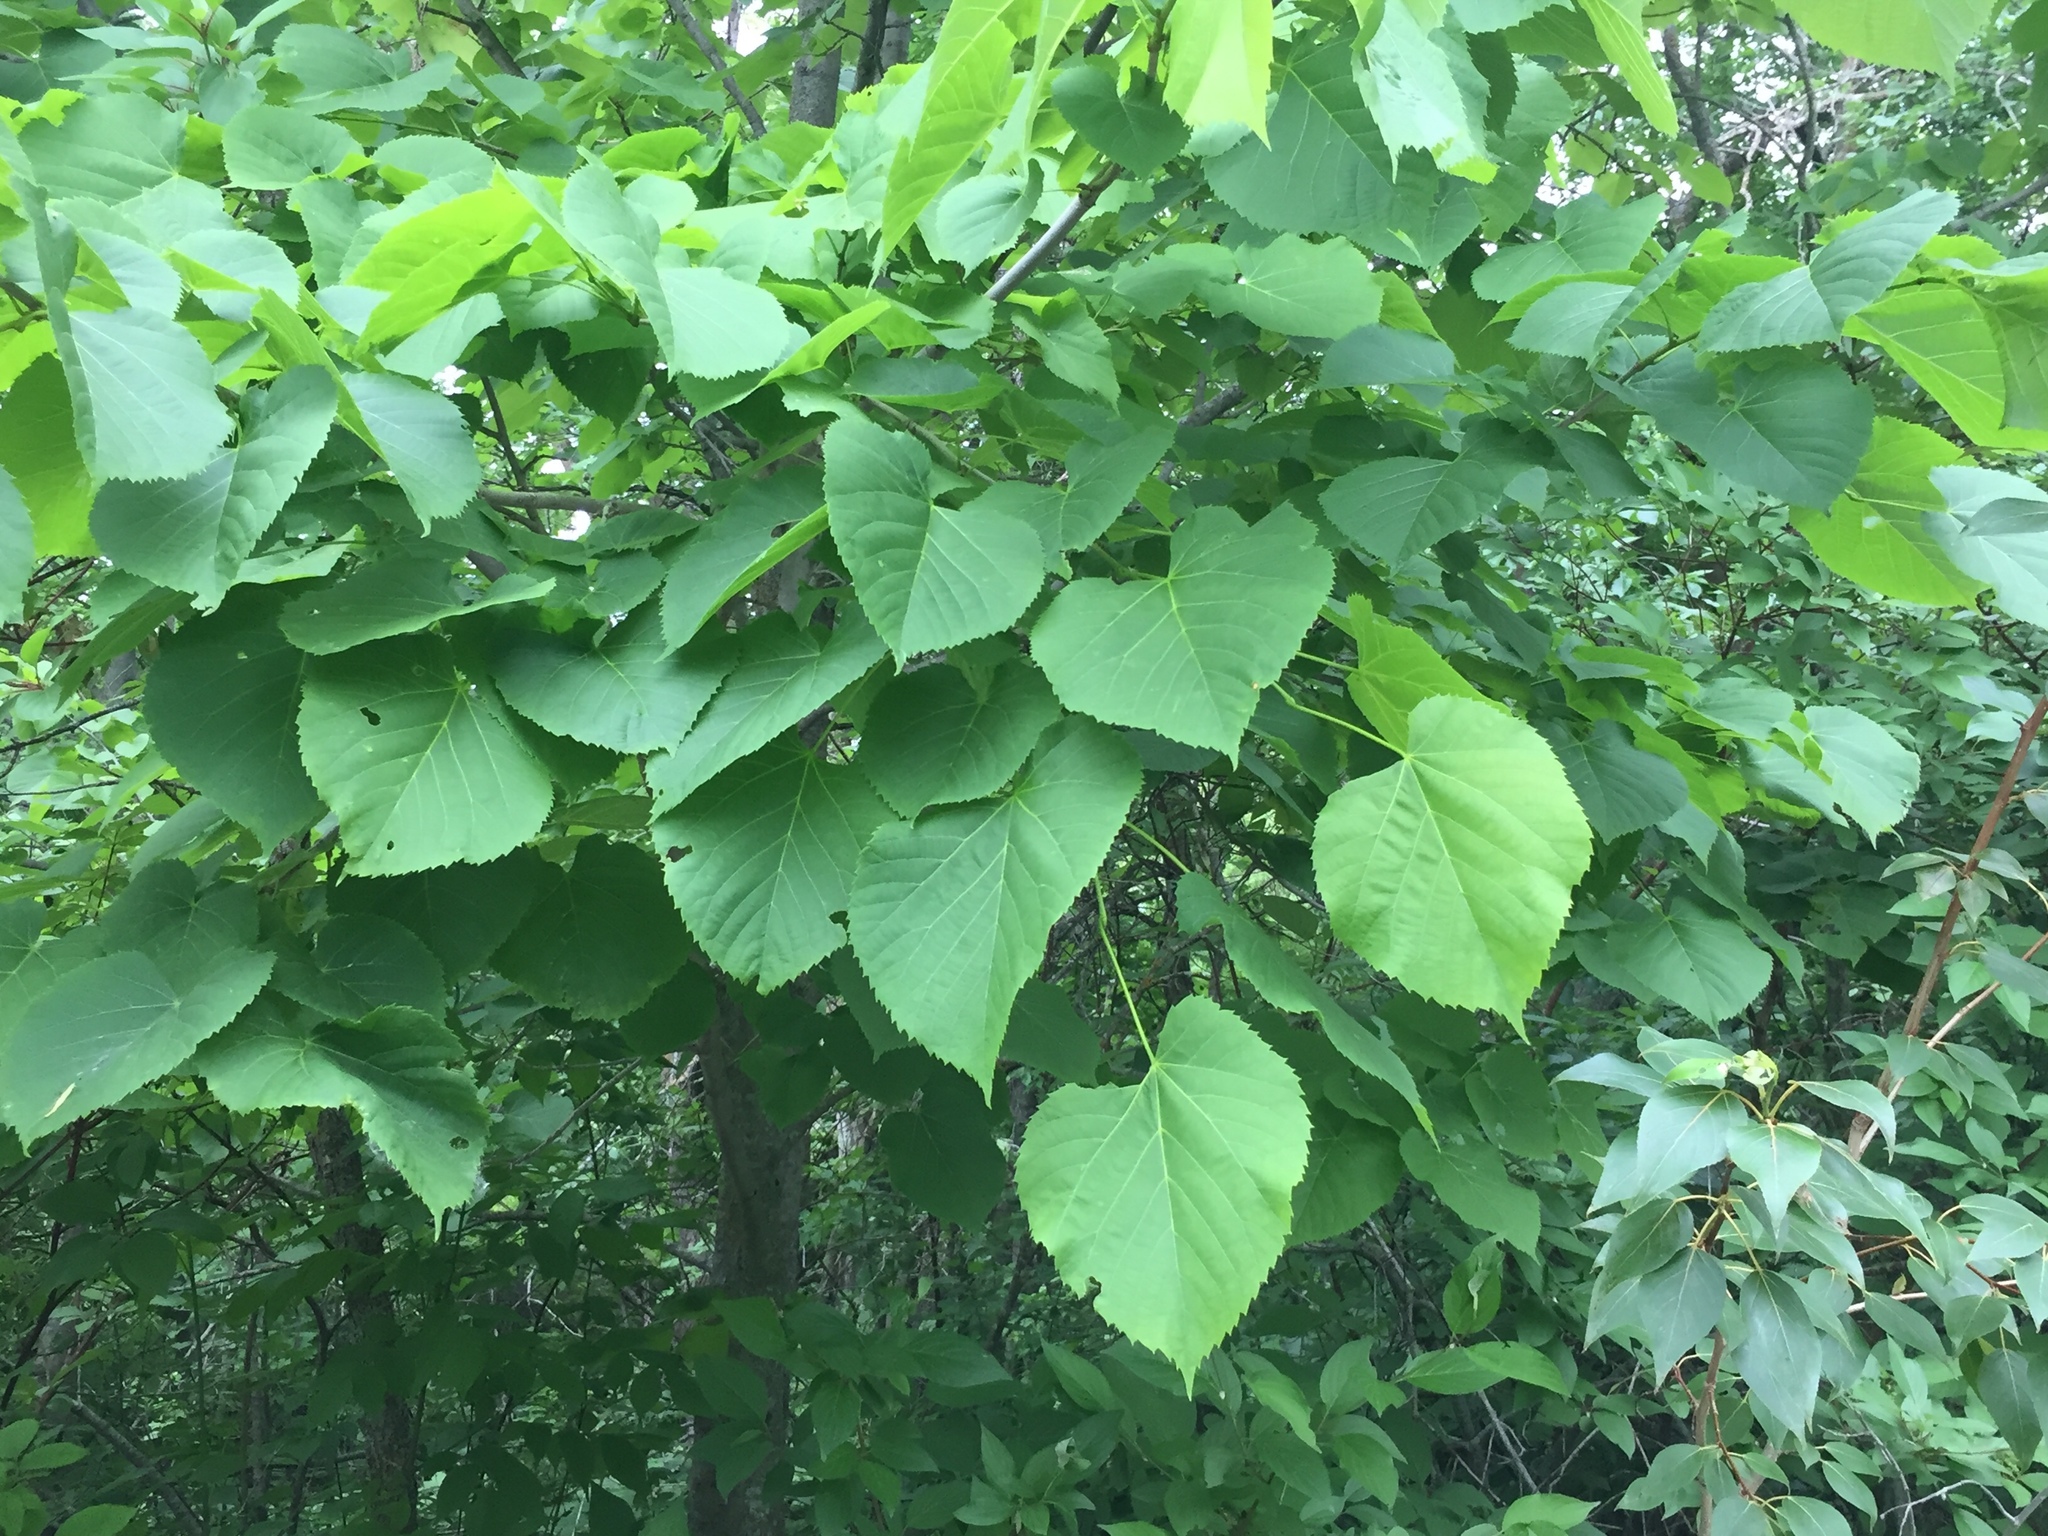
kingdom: Plantae
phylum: Tracheophyta
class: Magnoliopsida
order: Malvales
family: Malvaceae
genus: Tilia
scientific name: Tilia americana
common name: Basswood
